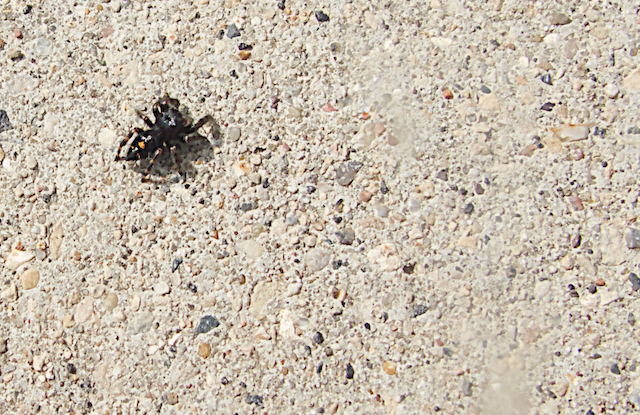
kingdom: Animalia
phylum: Arthropoda
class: Arachnida
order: Araneae
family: Salticidae
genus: Phidippus
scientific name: Phidippus audax
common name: Bold jumper
